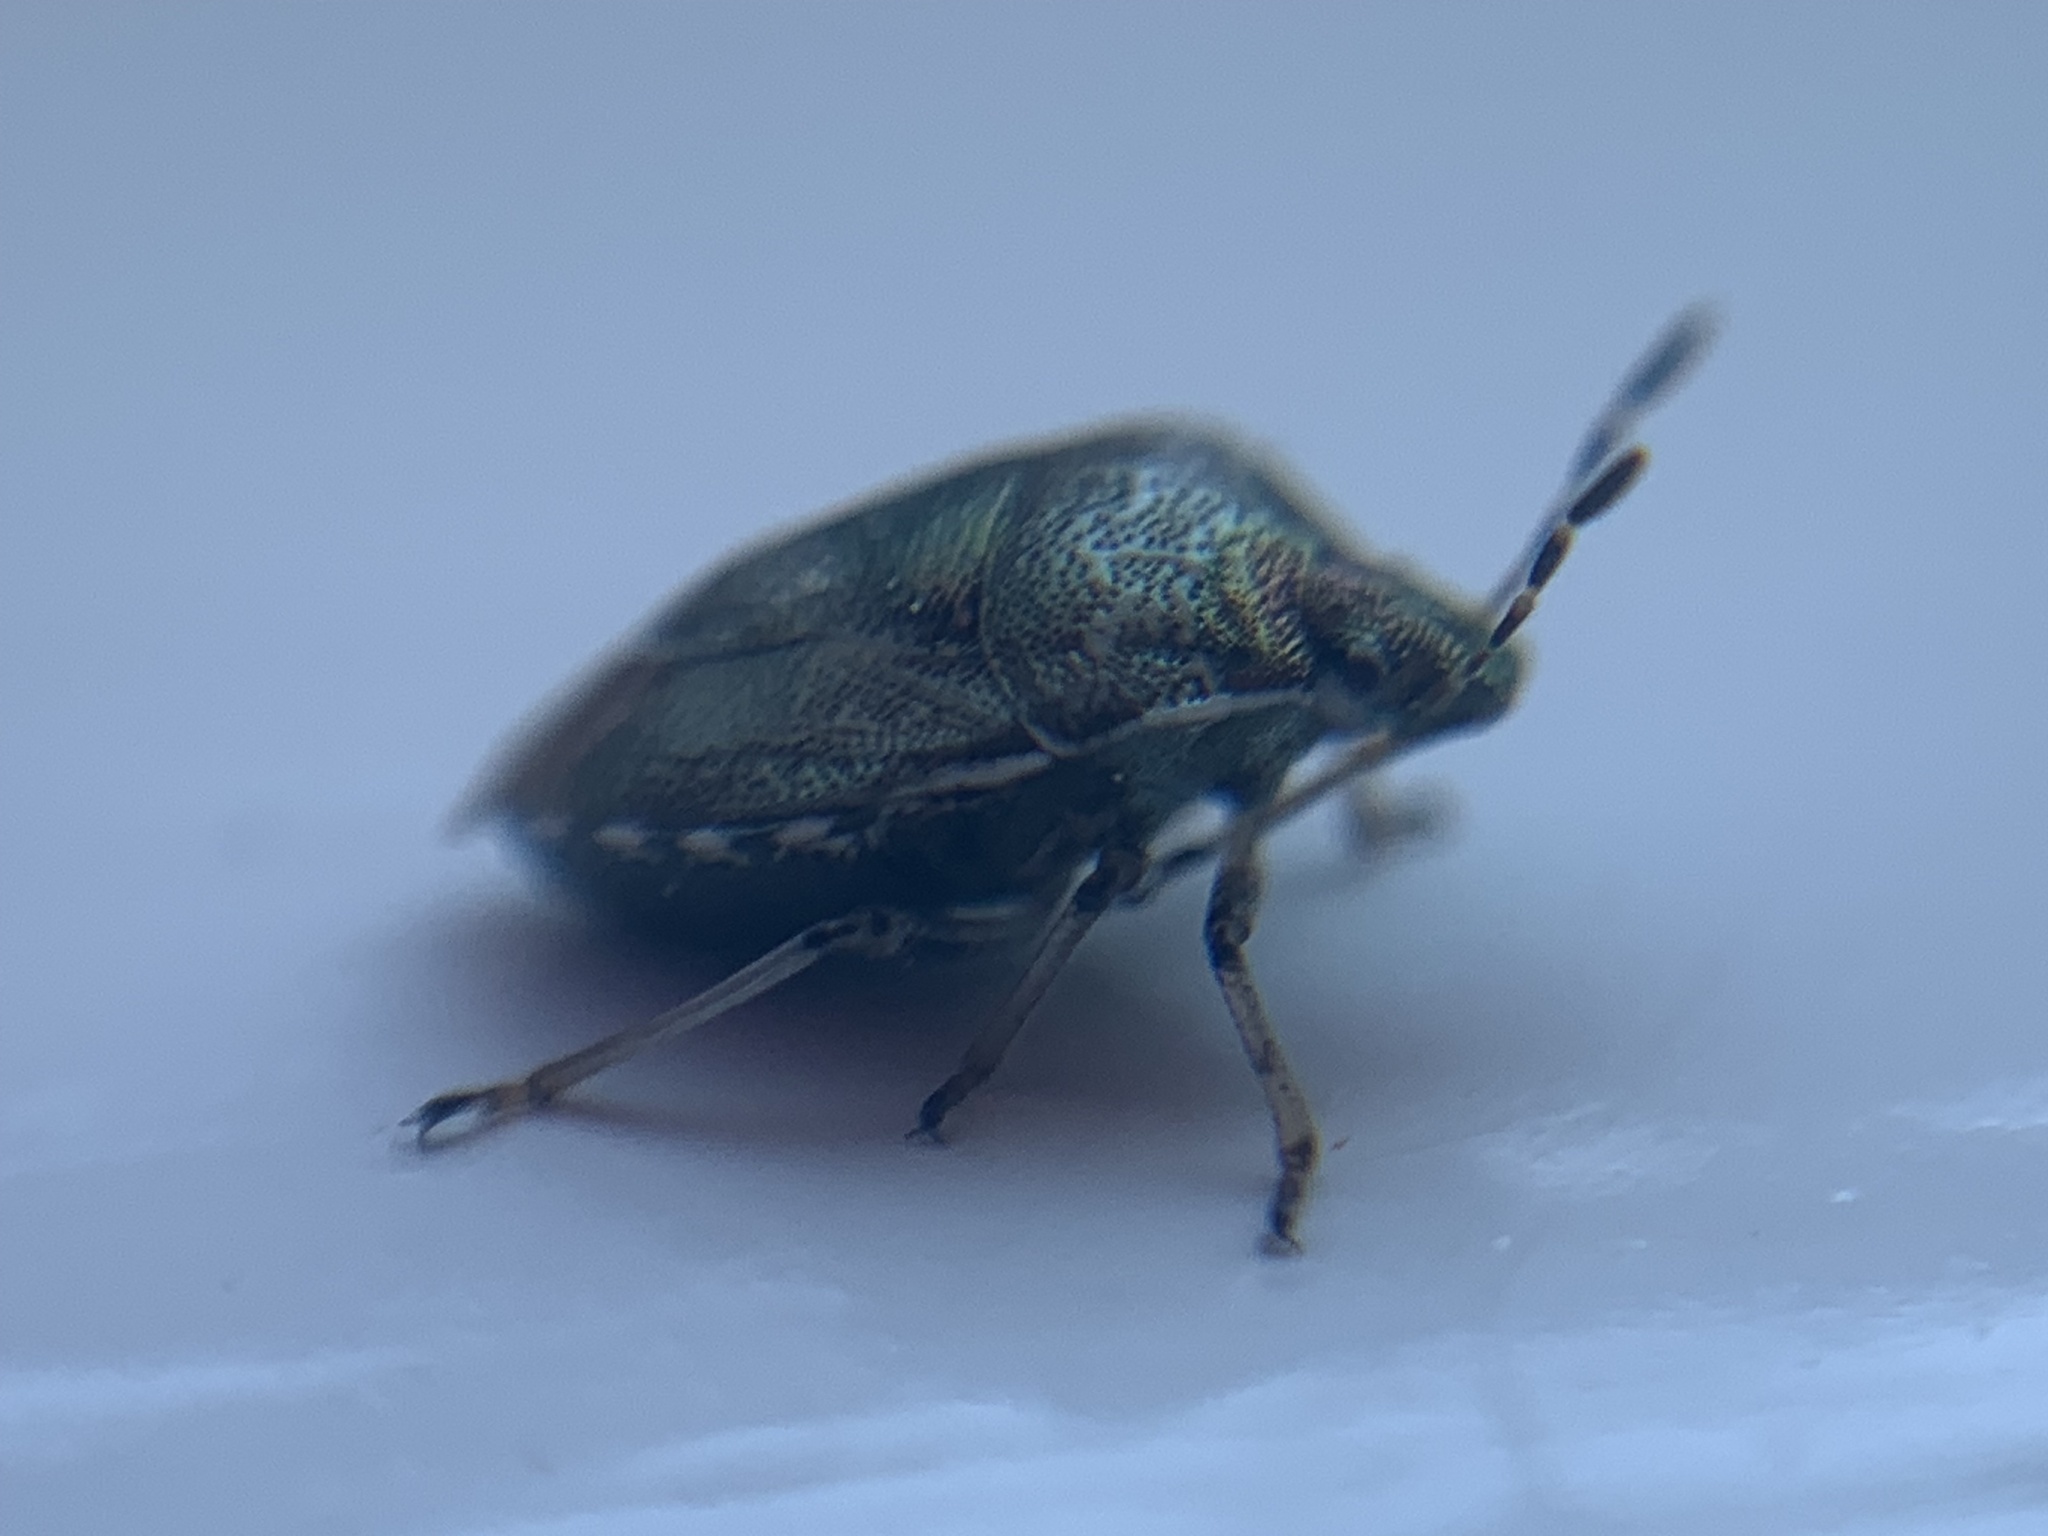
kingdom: Animalia
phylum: Arthropoda
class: Insecta
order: Hemiptera
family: Pentatomidae
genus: Eysarcoris
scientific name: Eysarcoris venustissimus
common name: Woundwort shieldbug
